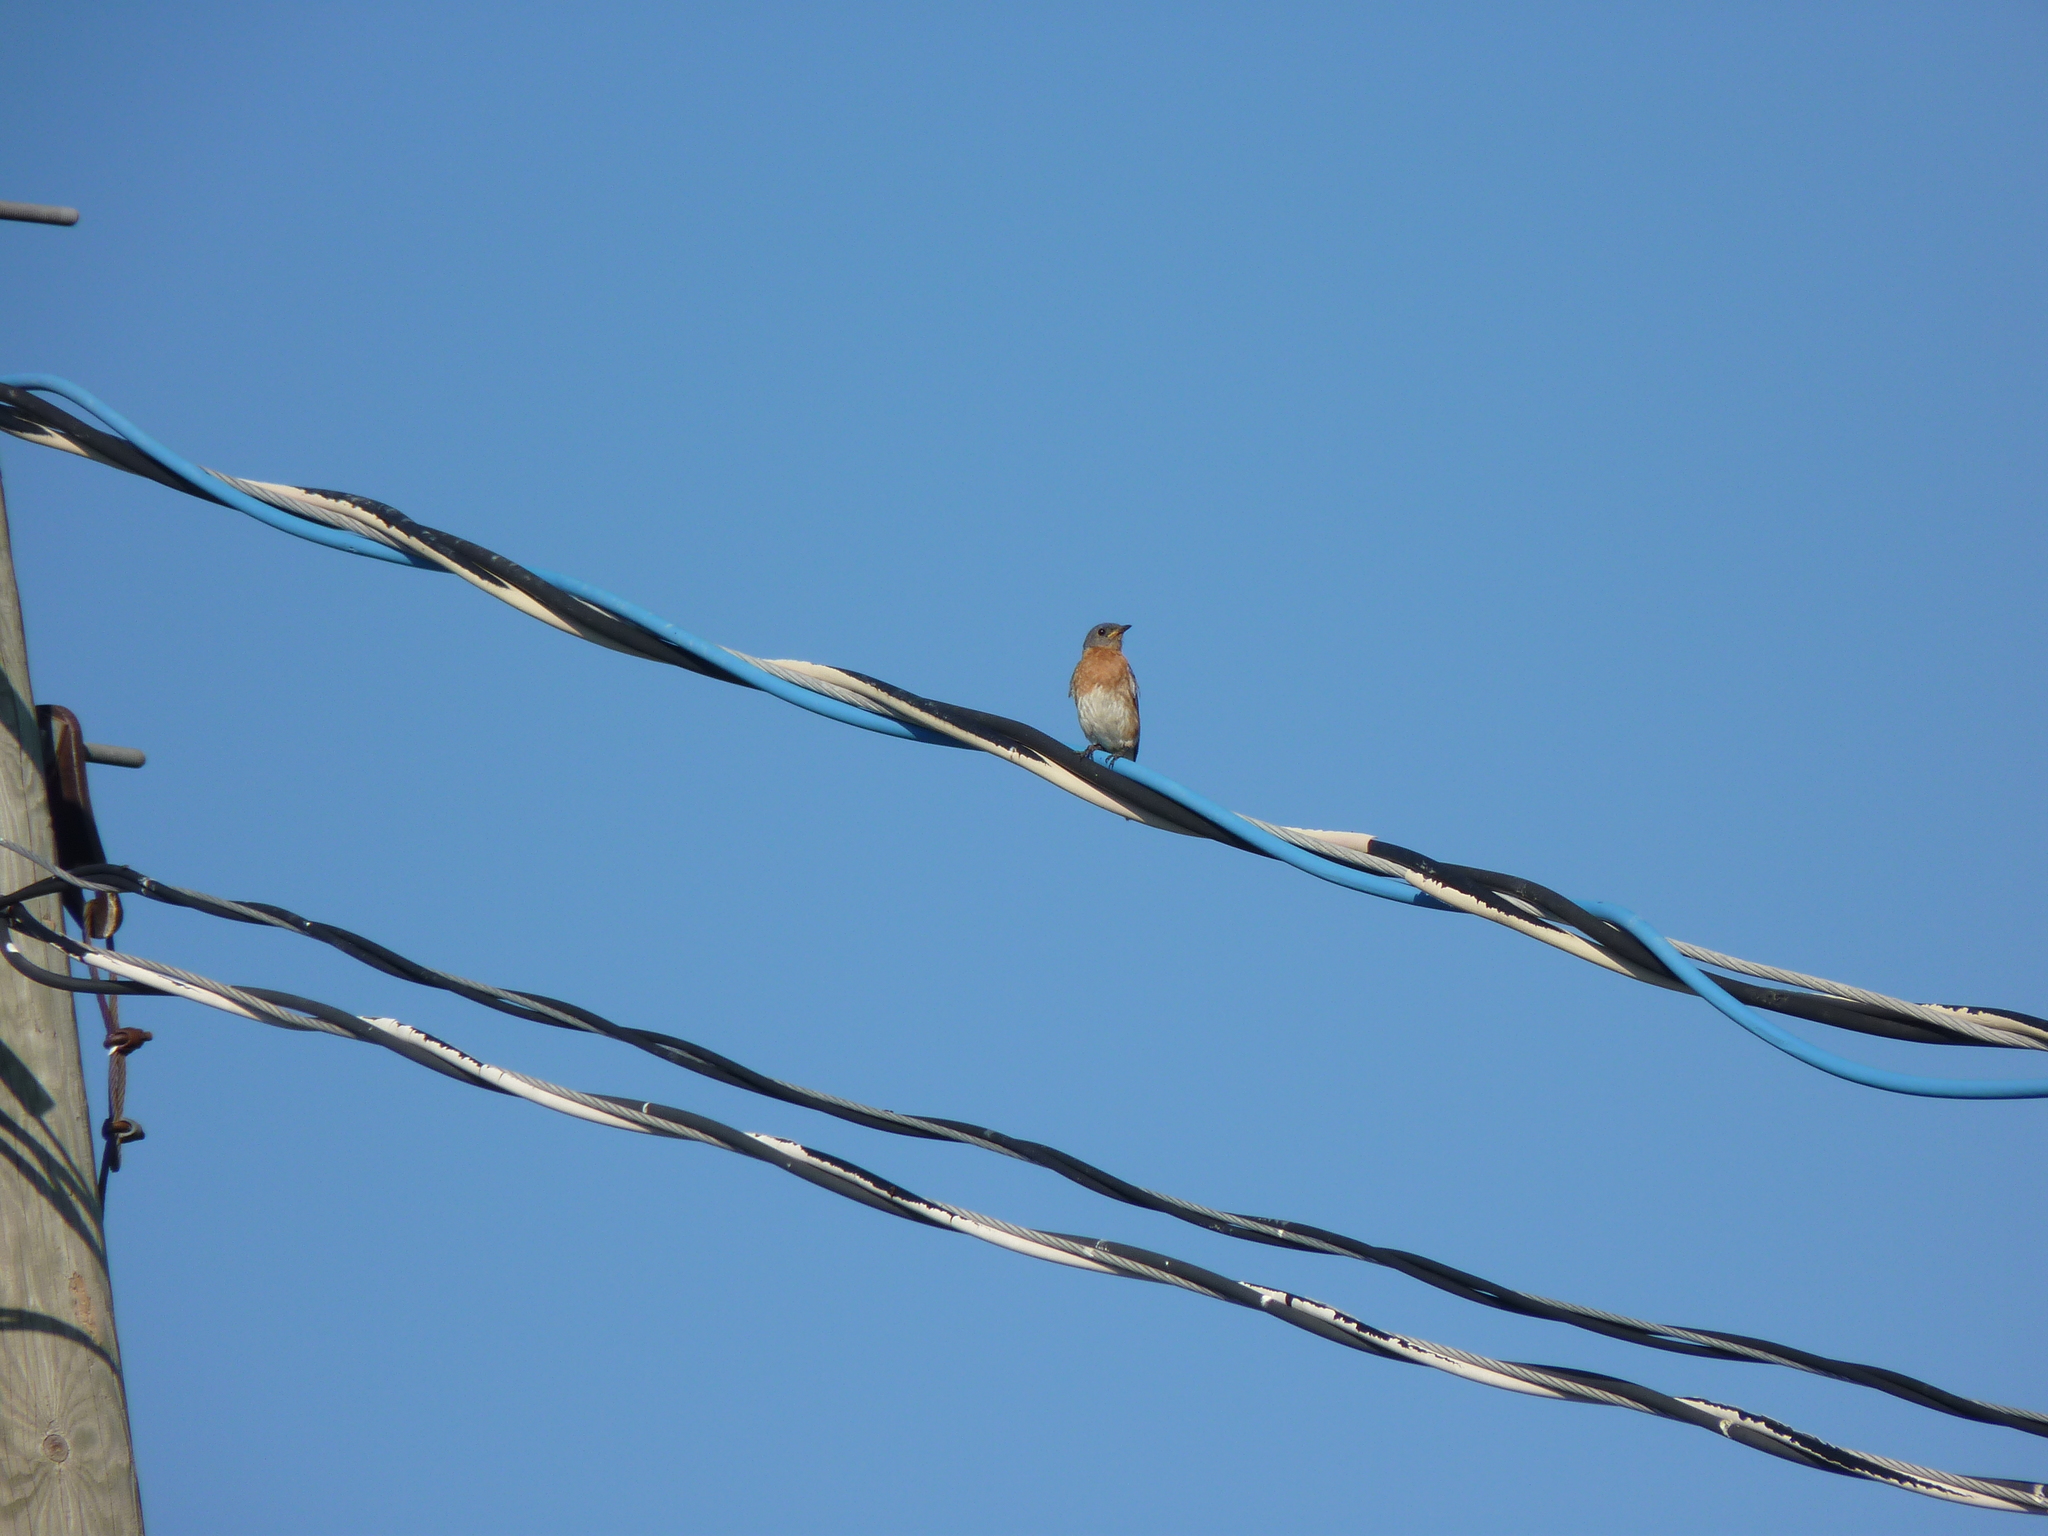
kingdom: Animalia
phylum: Chordata
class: Aves
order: Passeriformes
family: Turdidae
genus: Sialia
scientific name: Sialia sialis
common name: Eastern bluebird
